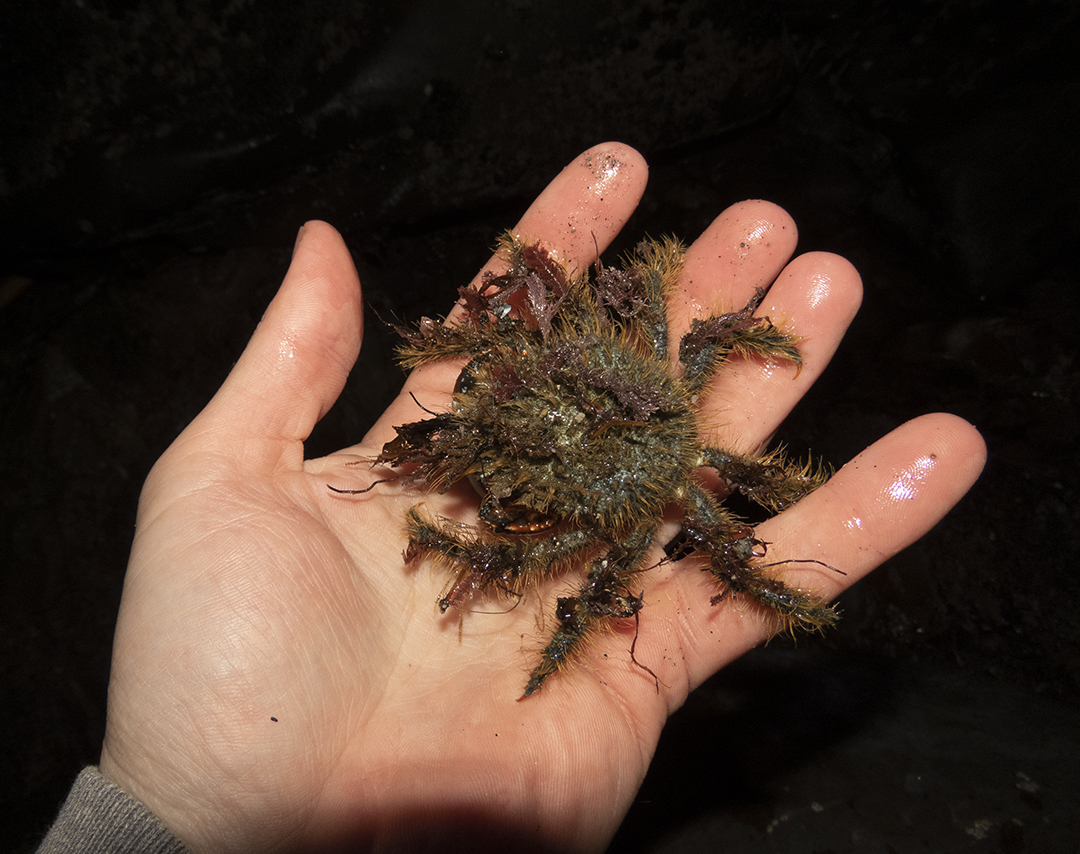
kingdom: Animalia
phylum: Arthropoda
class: Malacostraca
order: Decapoda
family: Majidae
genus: Notomithrax
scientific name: Notomithrax ursus
